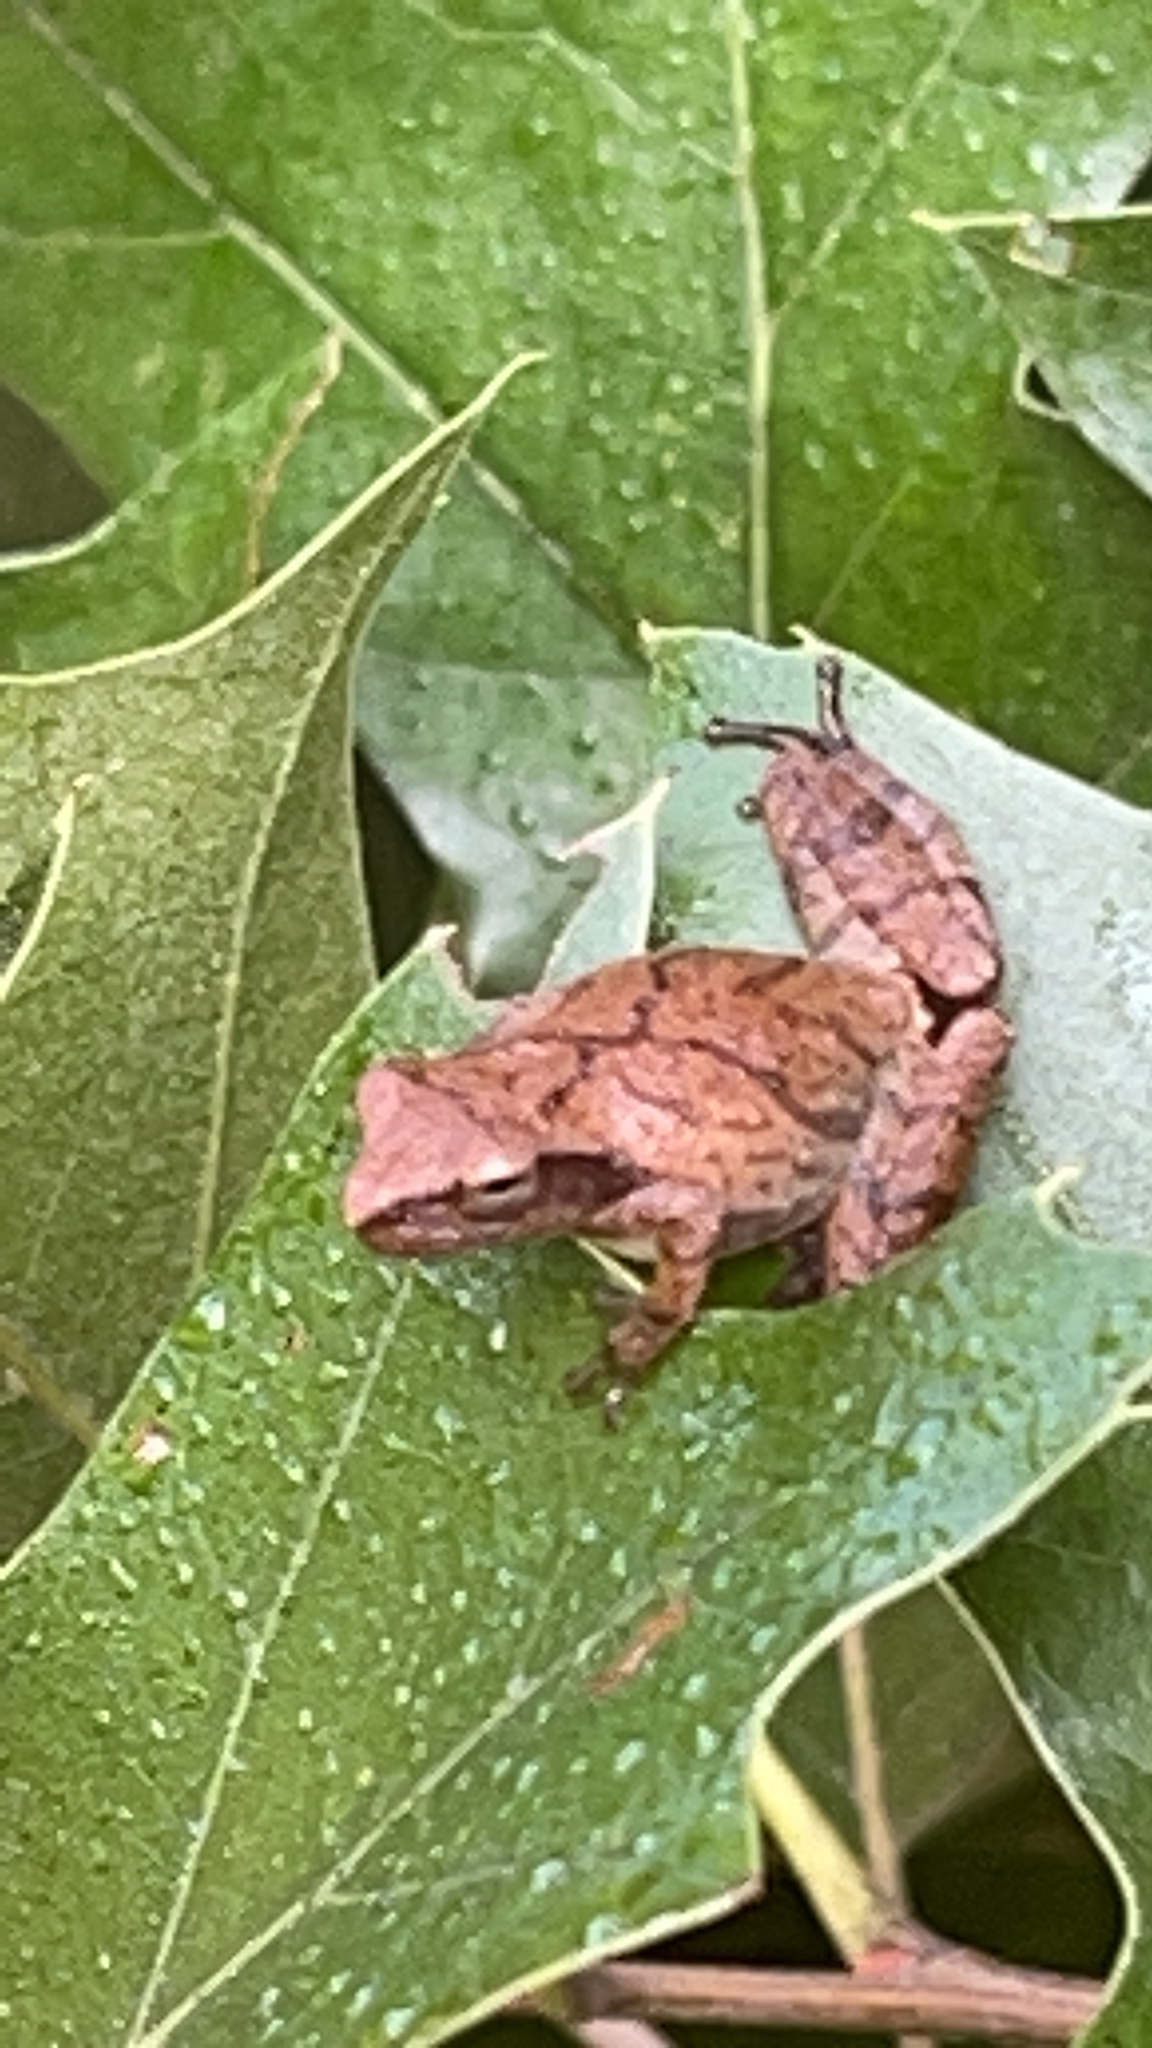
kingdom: Animalia
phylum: Chordata
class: Amphibia
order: Anura
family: Hylidae
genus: Pseudacris
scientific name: Pseudacris crucifer
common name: Spring peeper
